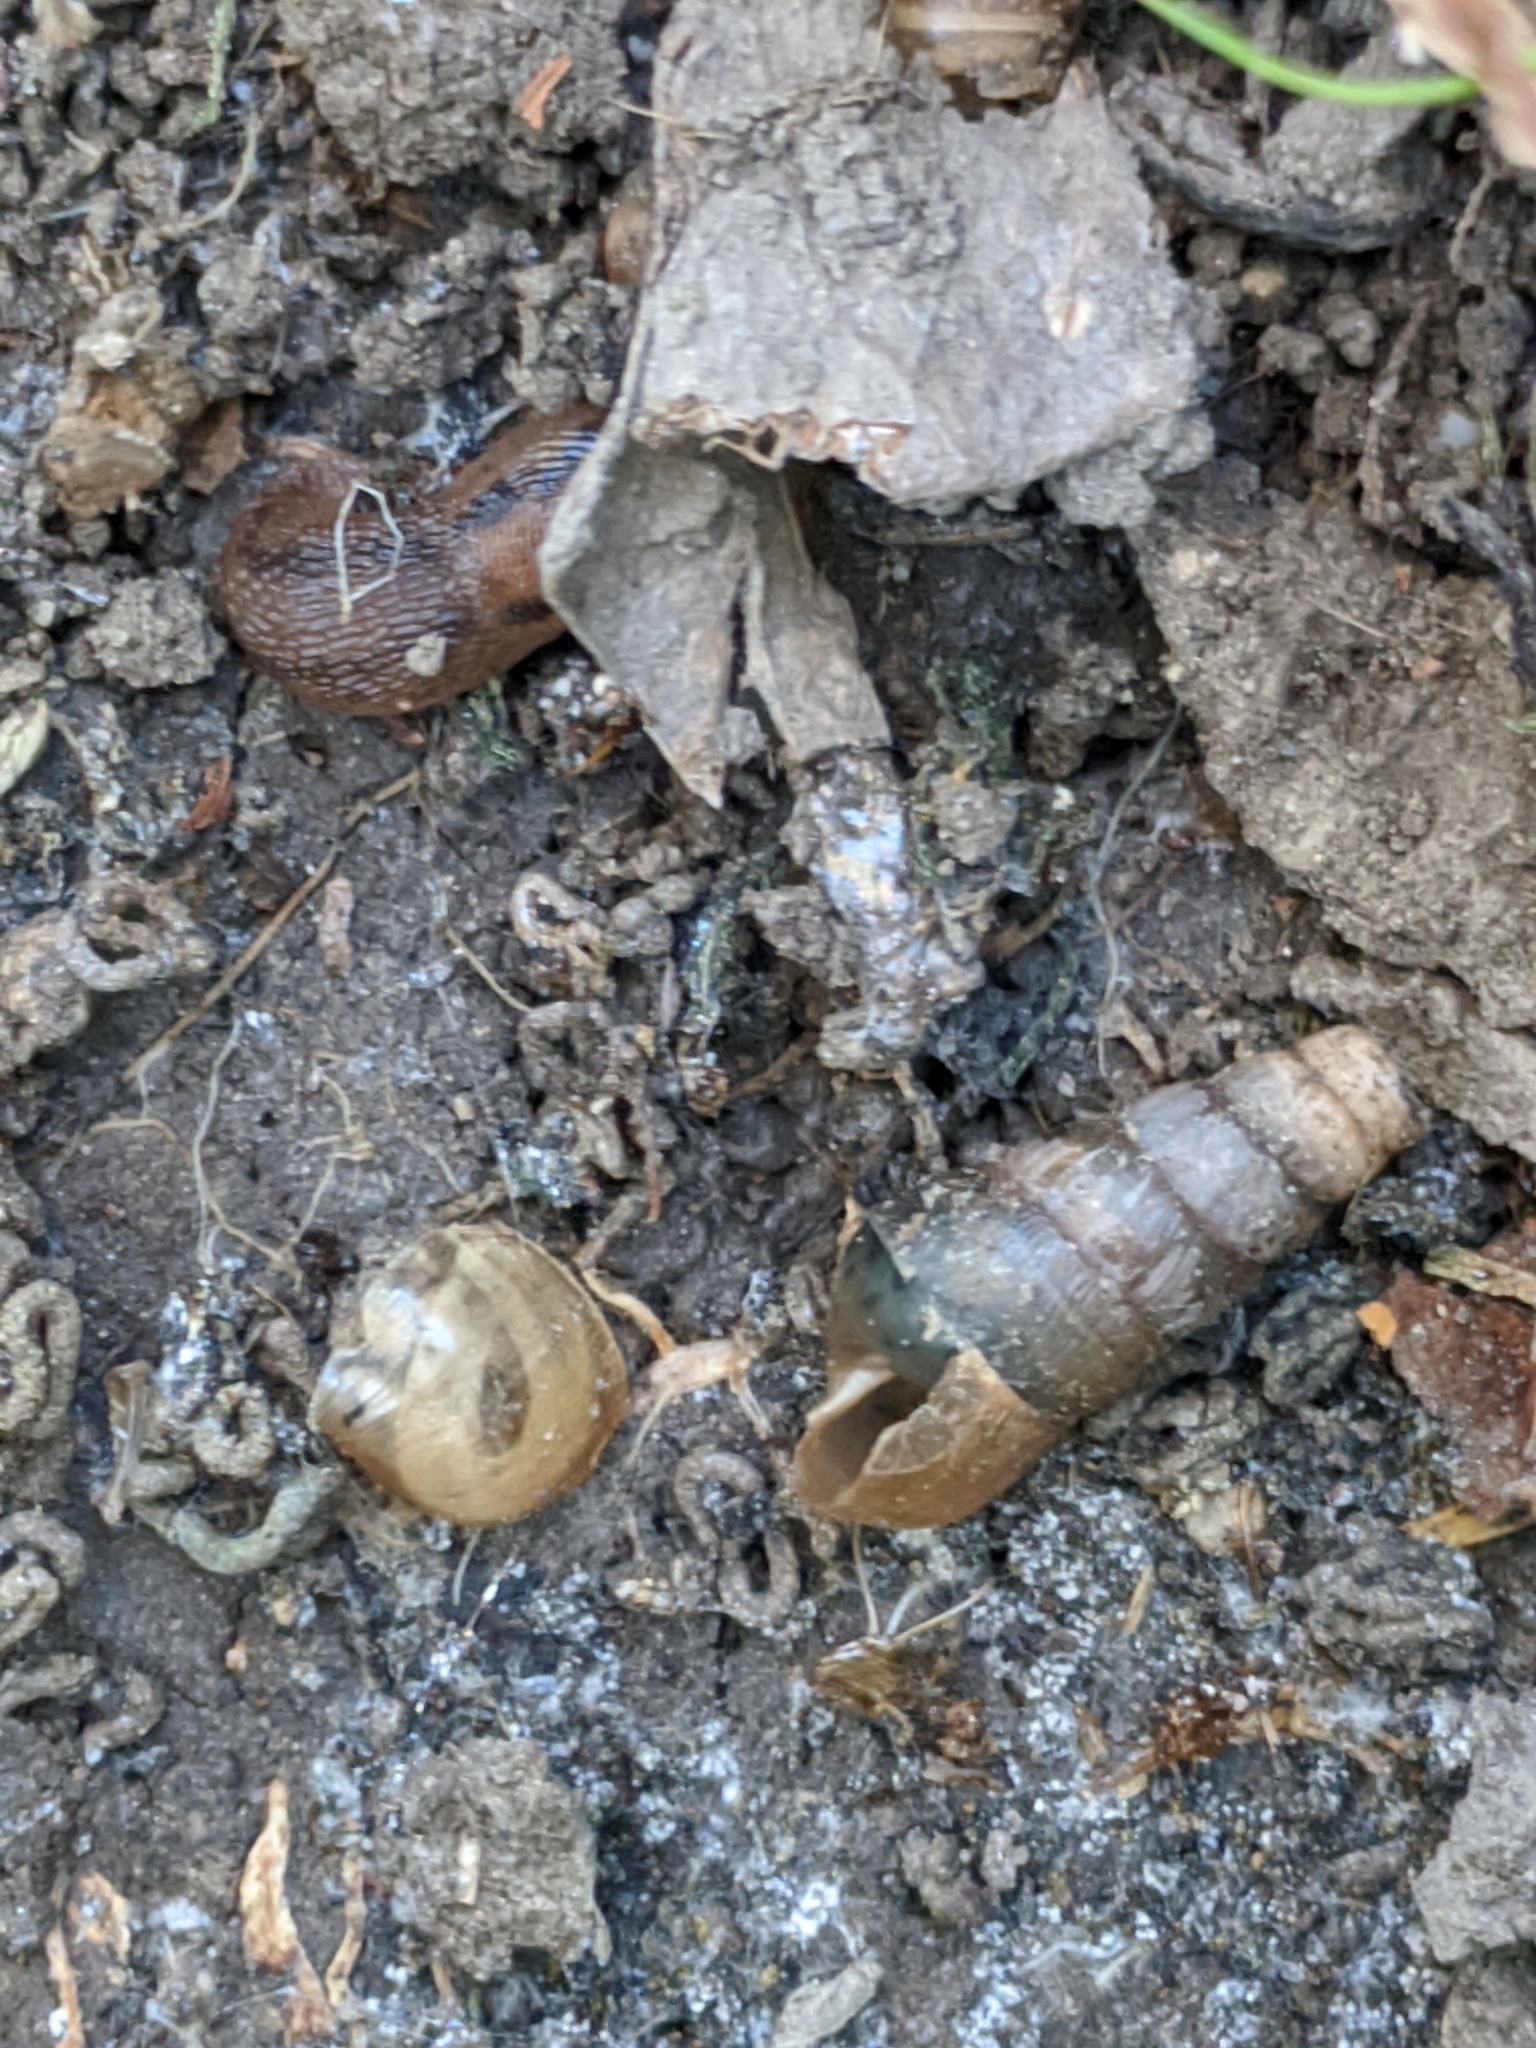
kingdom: Animalia
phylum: Mollusca
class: Gastropoda
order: Stylommatophora
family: Achatinidae
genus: Rumina
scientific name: Rumina decollata
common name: Decollate snail
